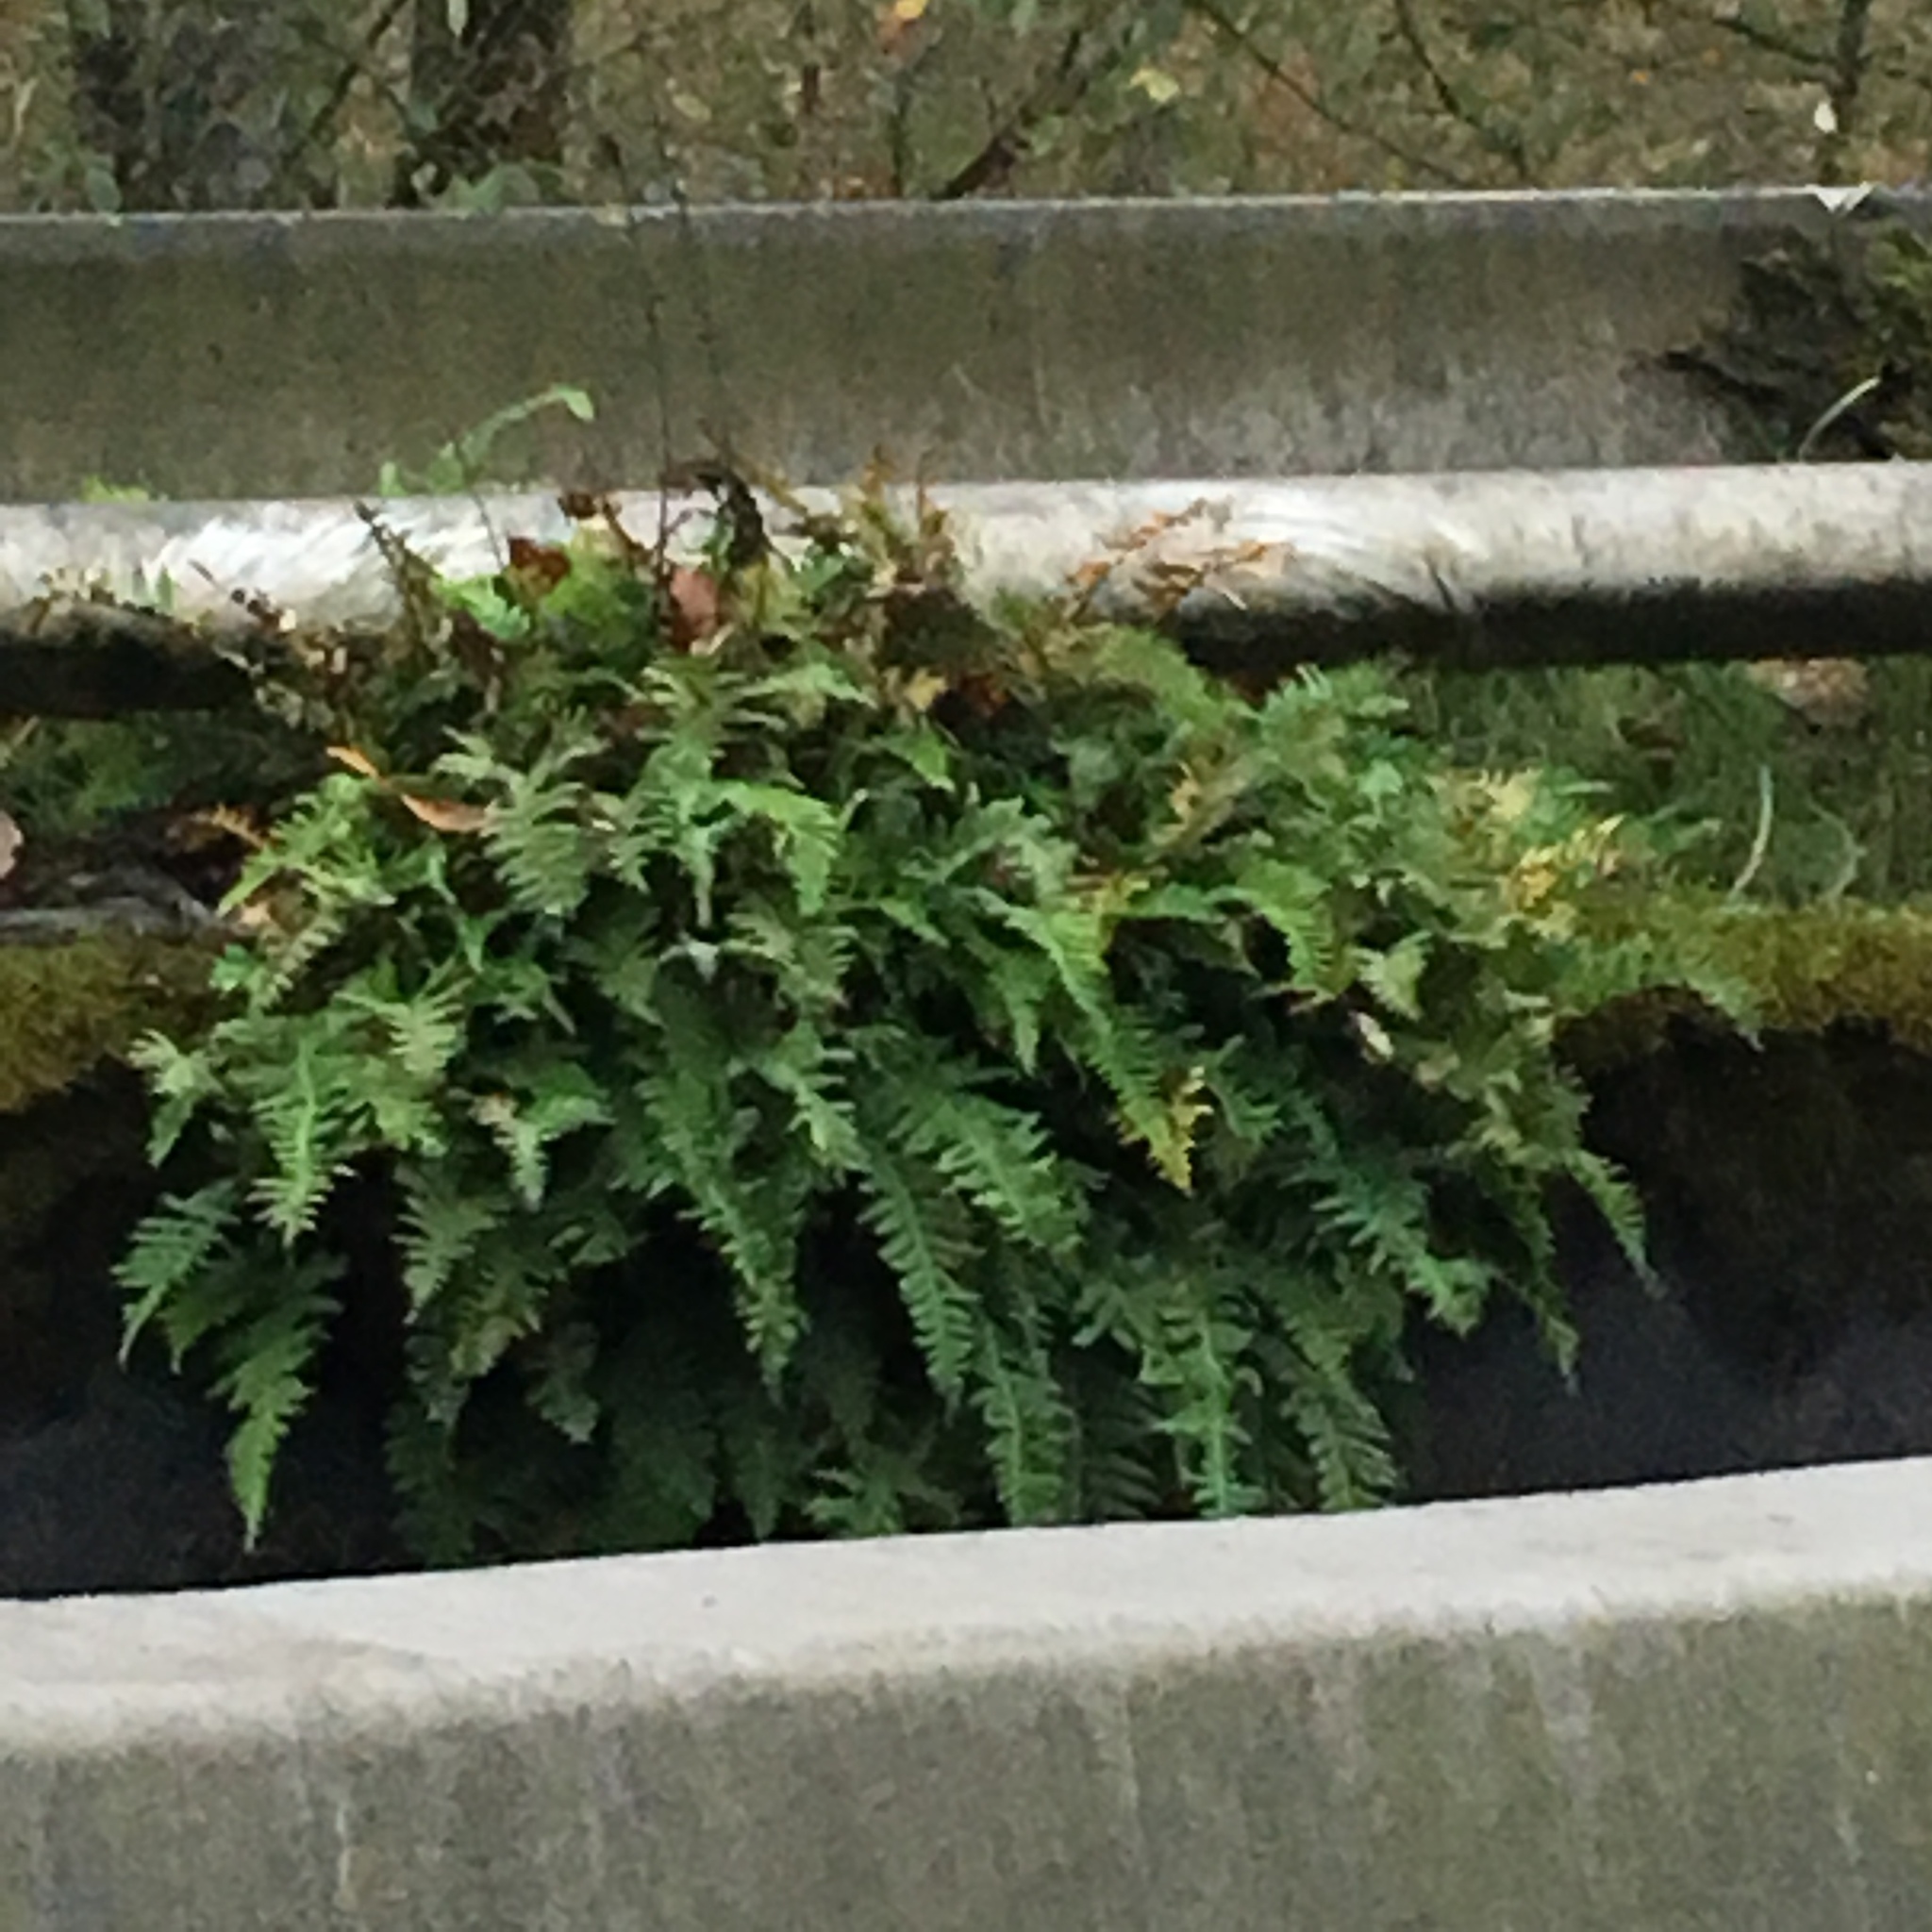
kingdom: Plantae
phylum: Tracheophyta
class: Polypodiopsida
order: Polypodiales
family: Polypodiaceae
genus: Polypodium
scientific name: Polypodium glycyrrhiza
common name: Licorice fern
